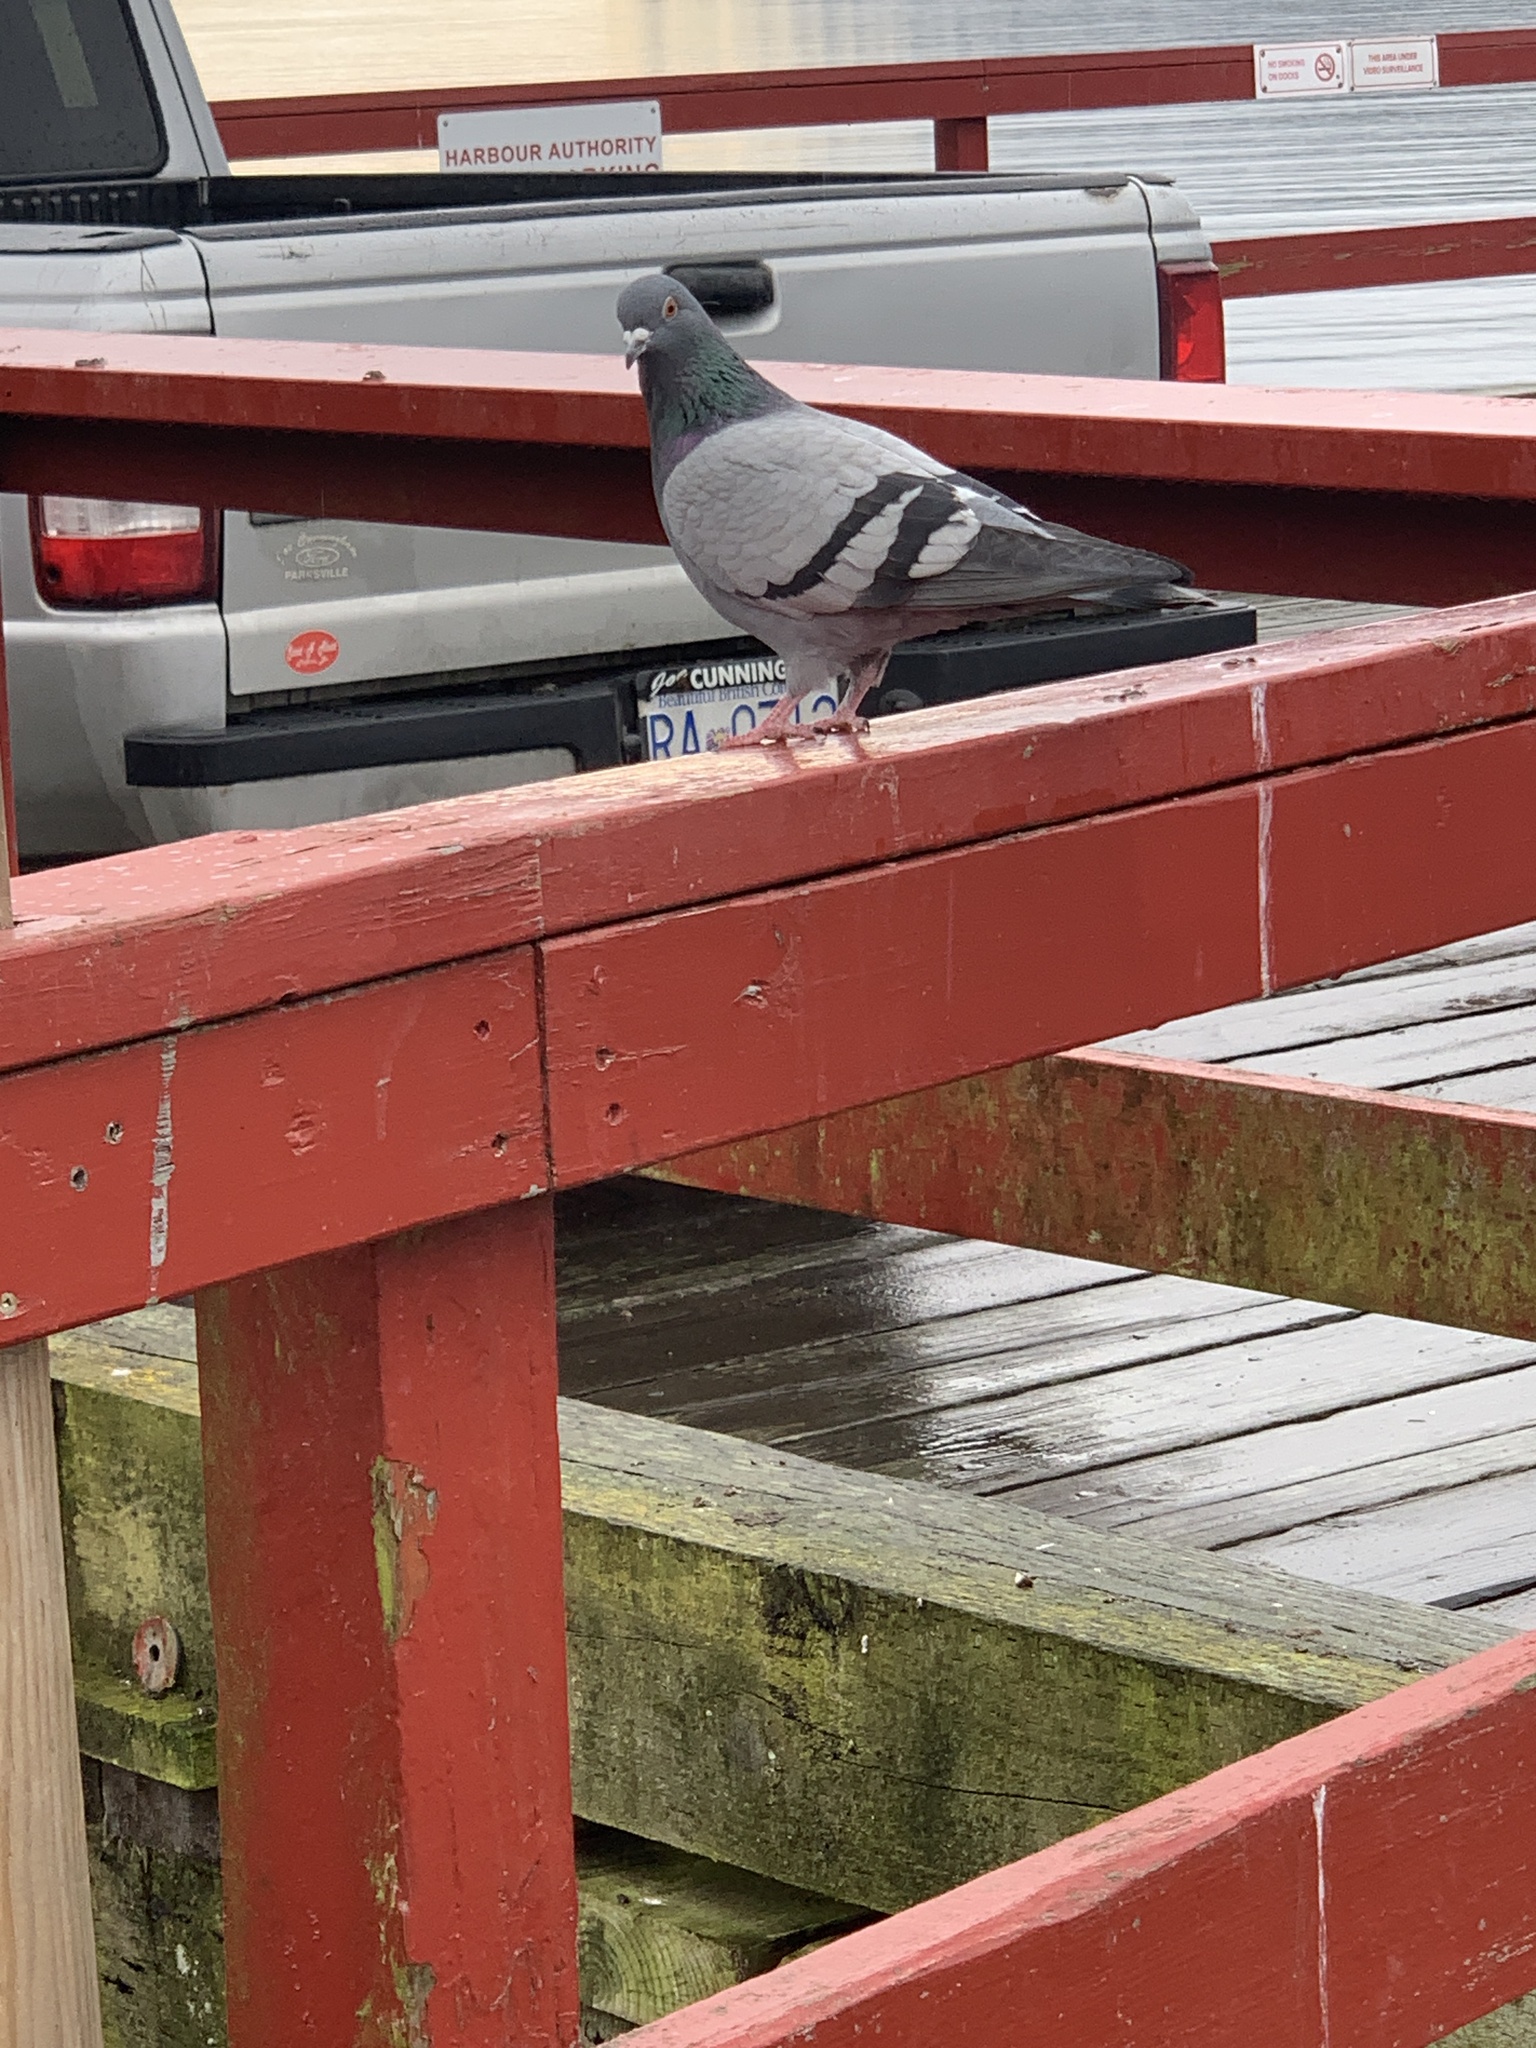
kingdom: Animalia
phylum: Chordata
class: Aves
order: Columbiformes
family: Columbidae
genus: Columba
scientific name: Columba livia
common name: Rock pigeon
